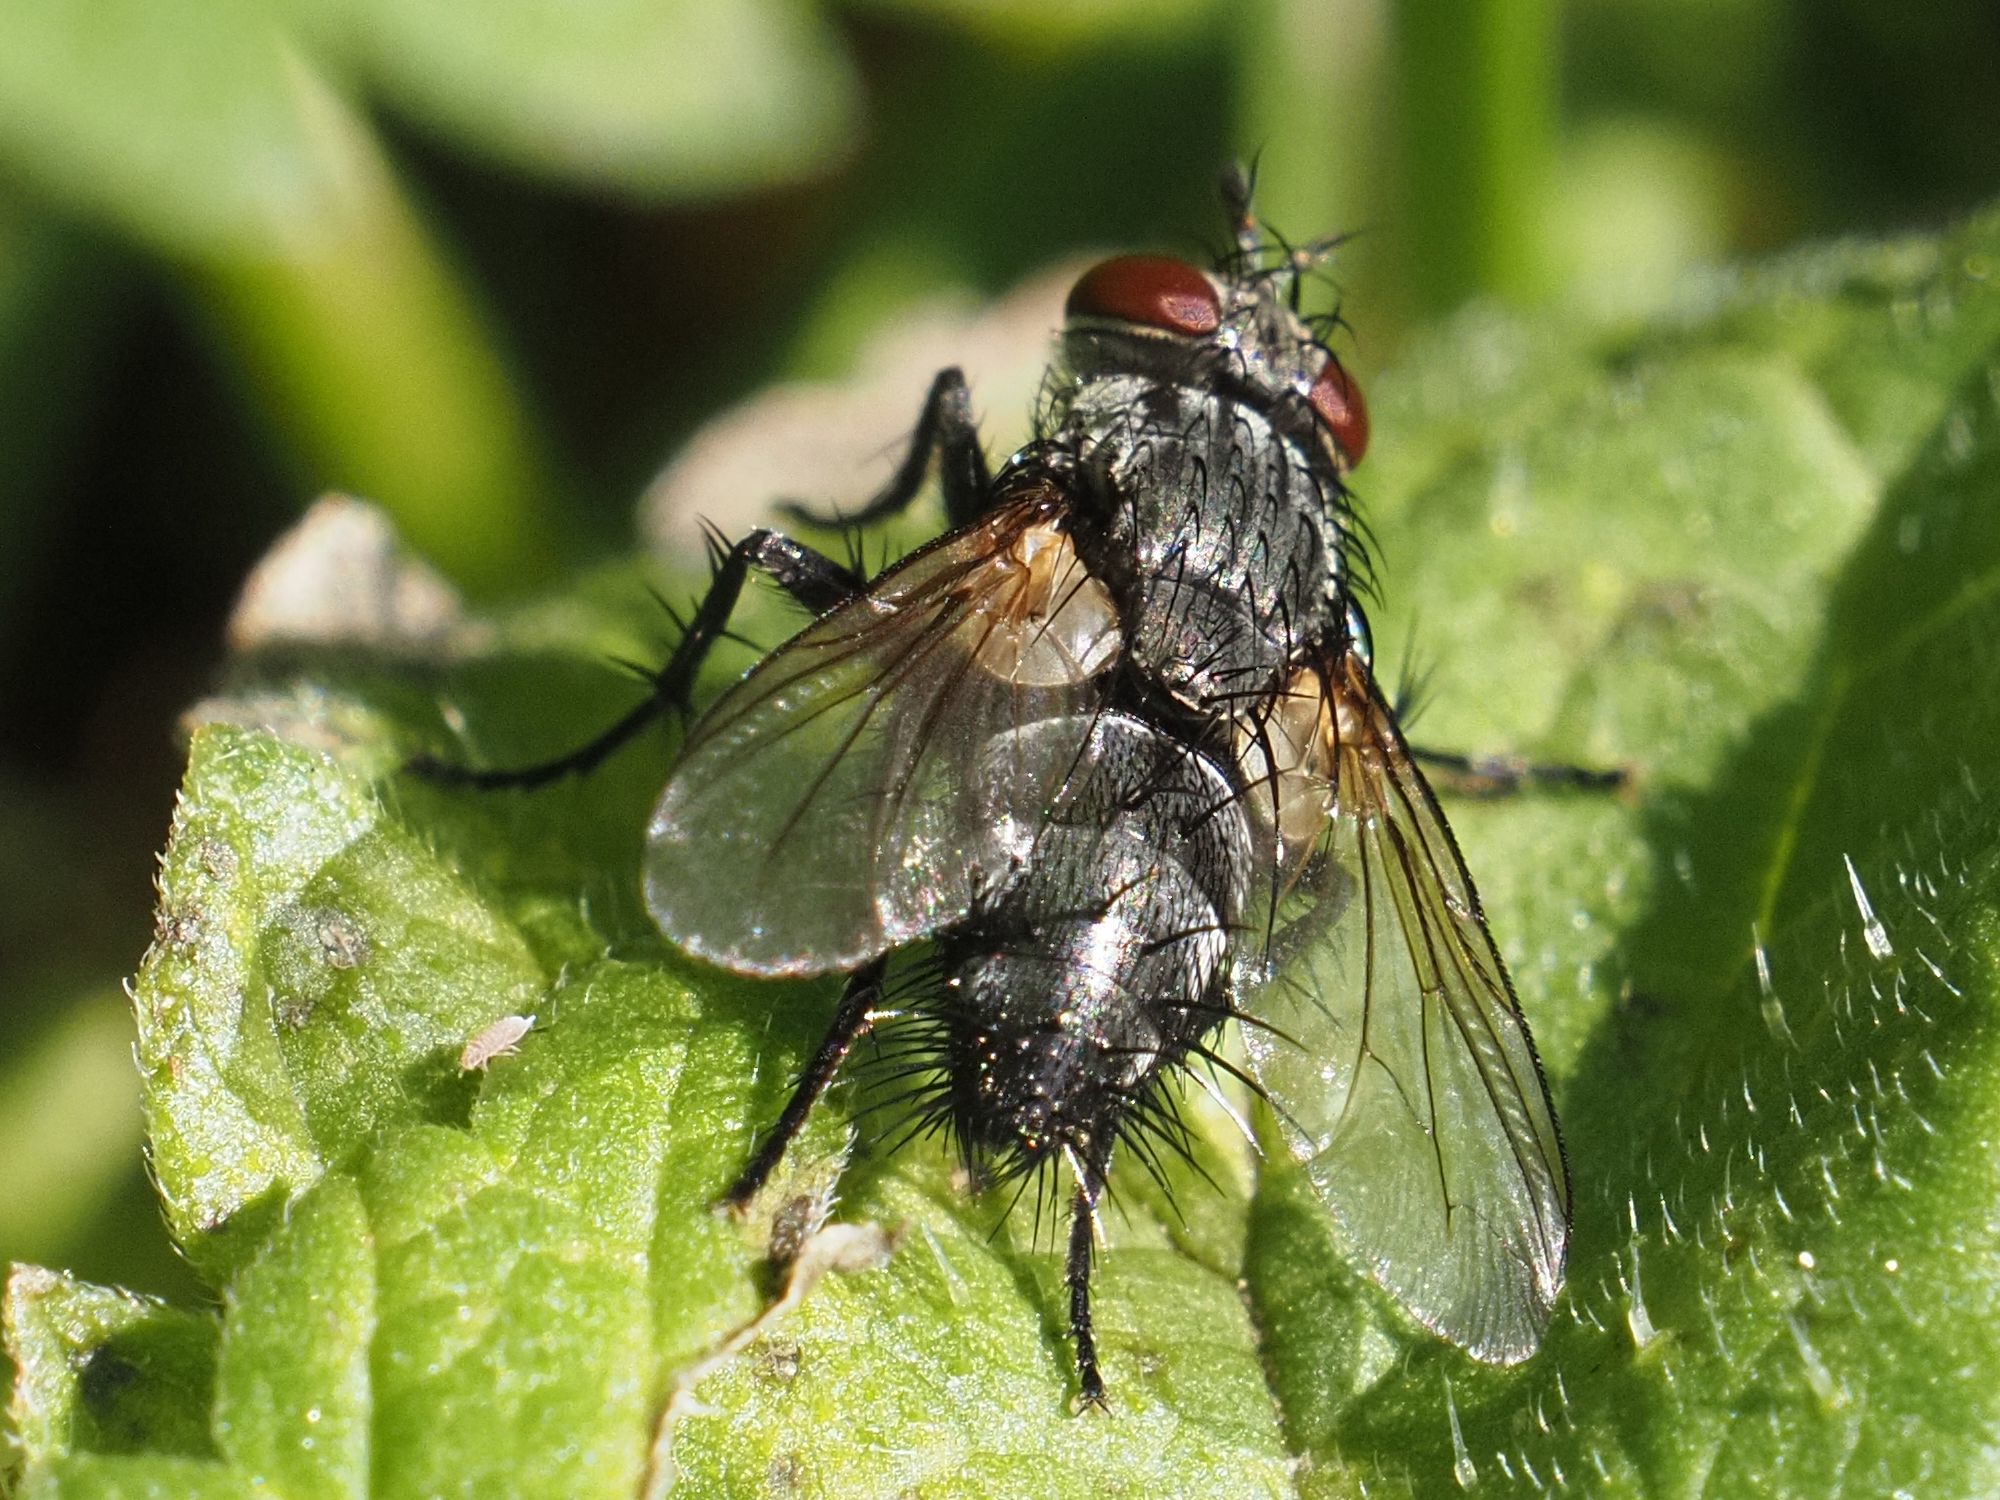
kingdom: Animalia
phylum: Arthropoda
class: Insecta
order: Diptera
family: Tachinidae
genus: Voria
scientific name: Voria ruralis
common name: Parasitic fly
